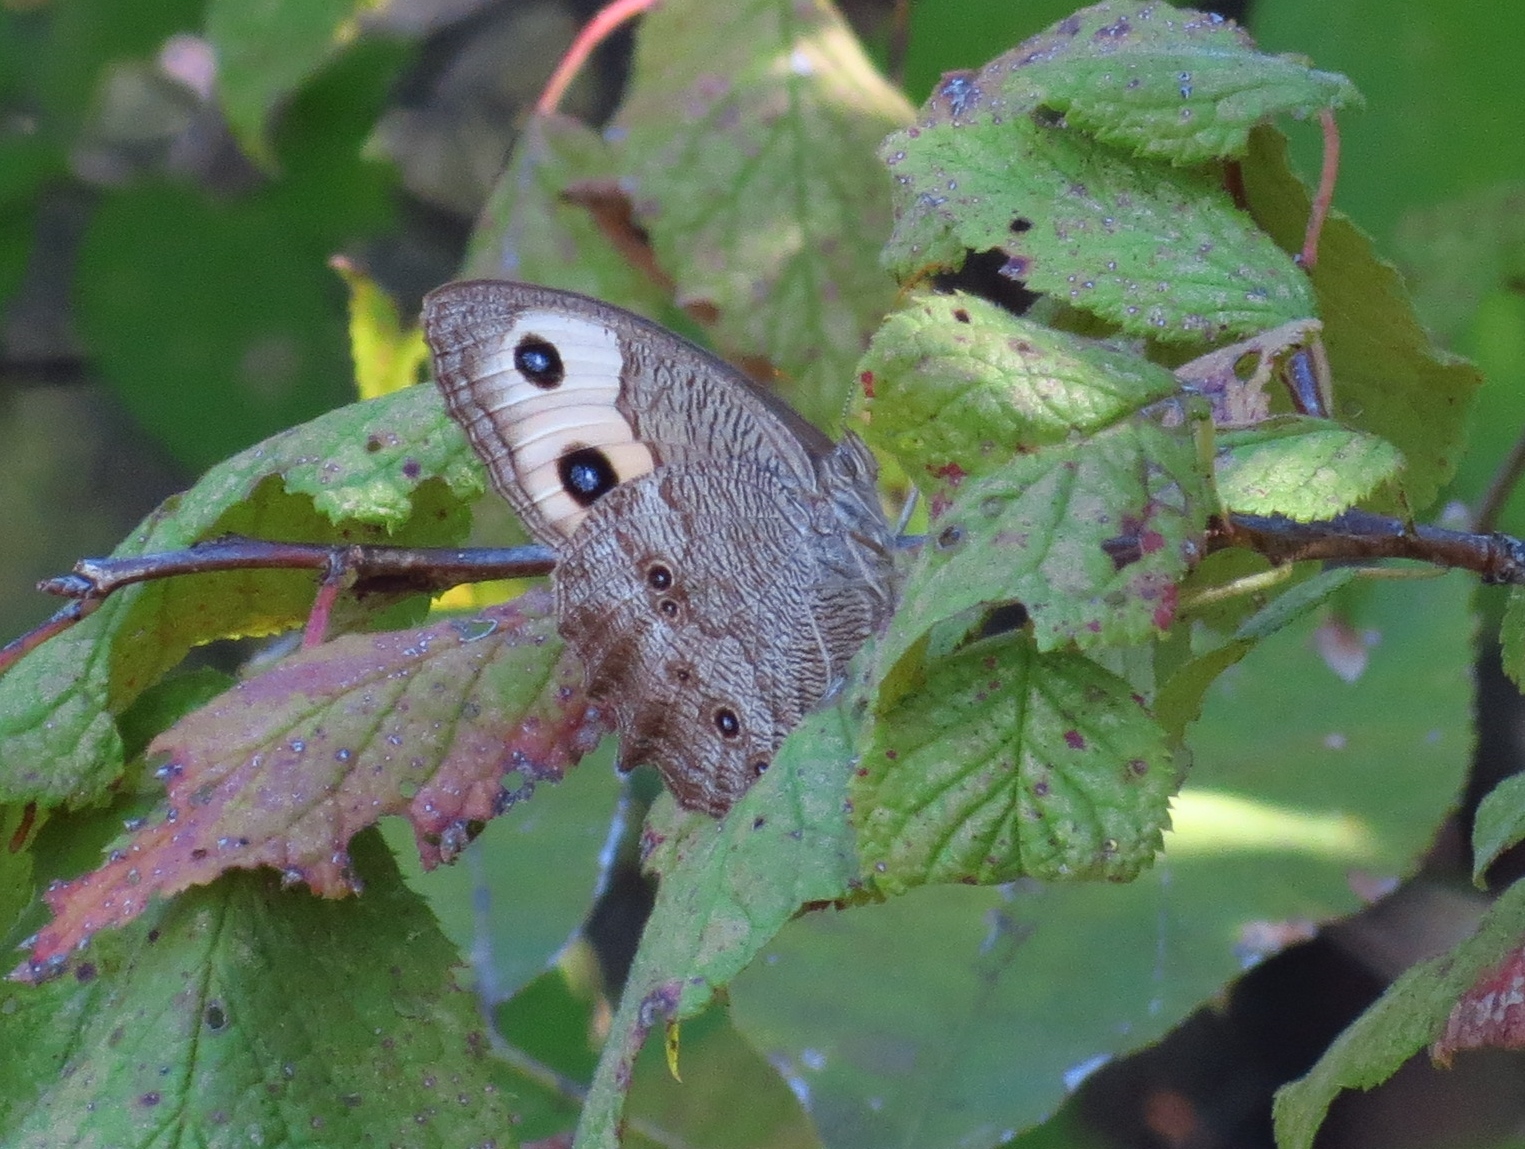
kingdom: Animalia
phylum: Arthropoda
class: Insecta
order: Lepidoptera
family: Nymphalidae
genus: Cercyonis
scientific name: Cercyonis pegala
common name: Common wood-nymph
